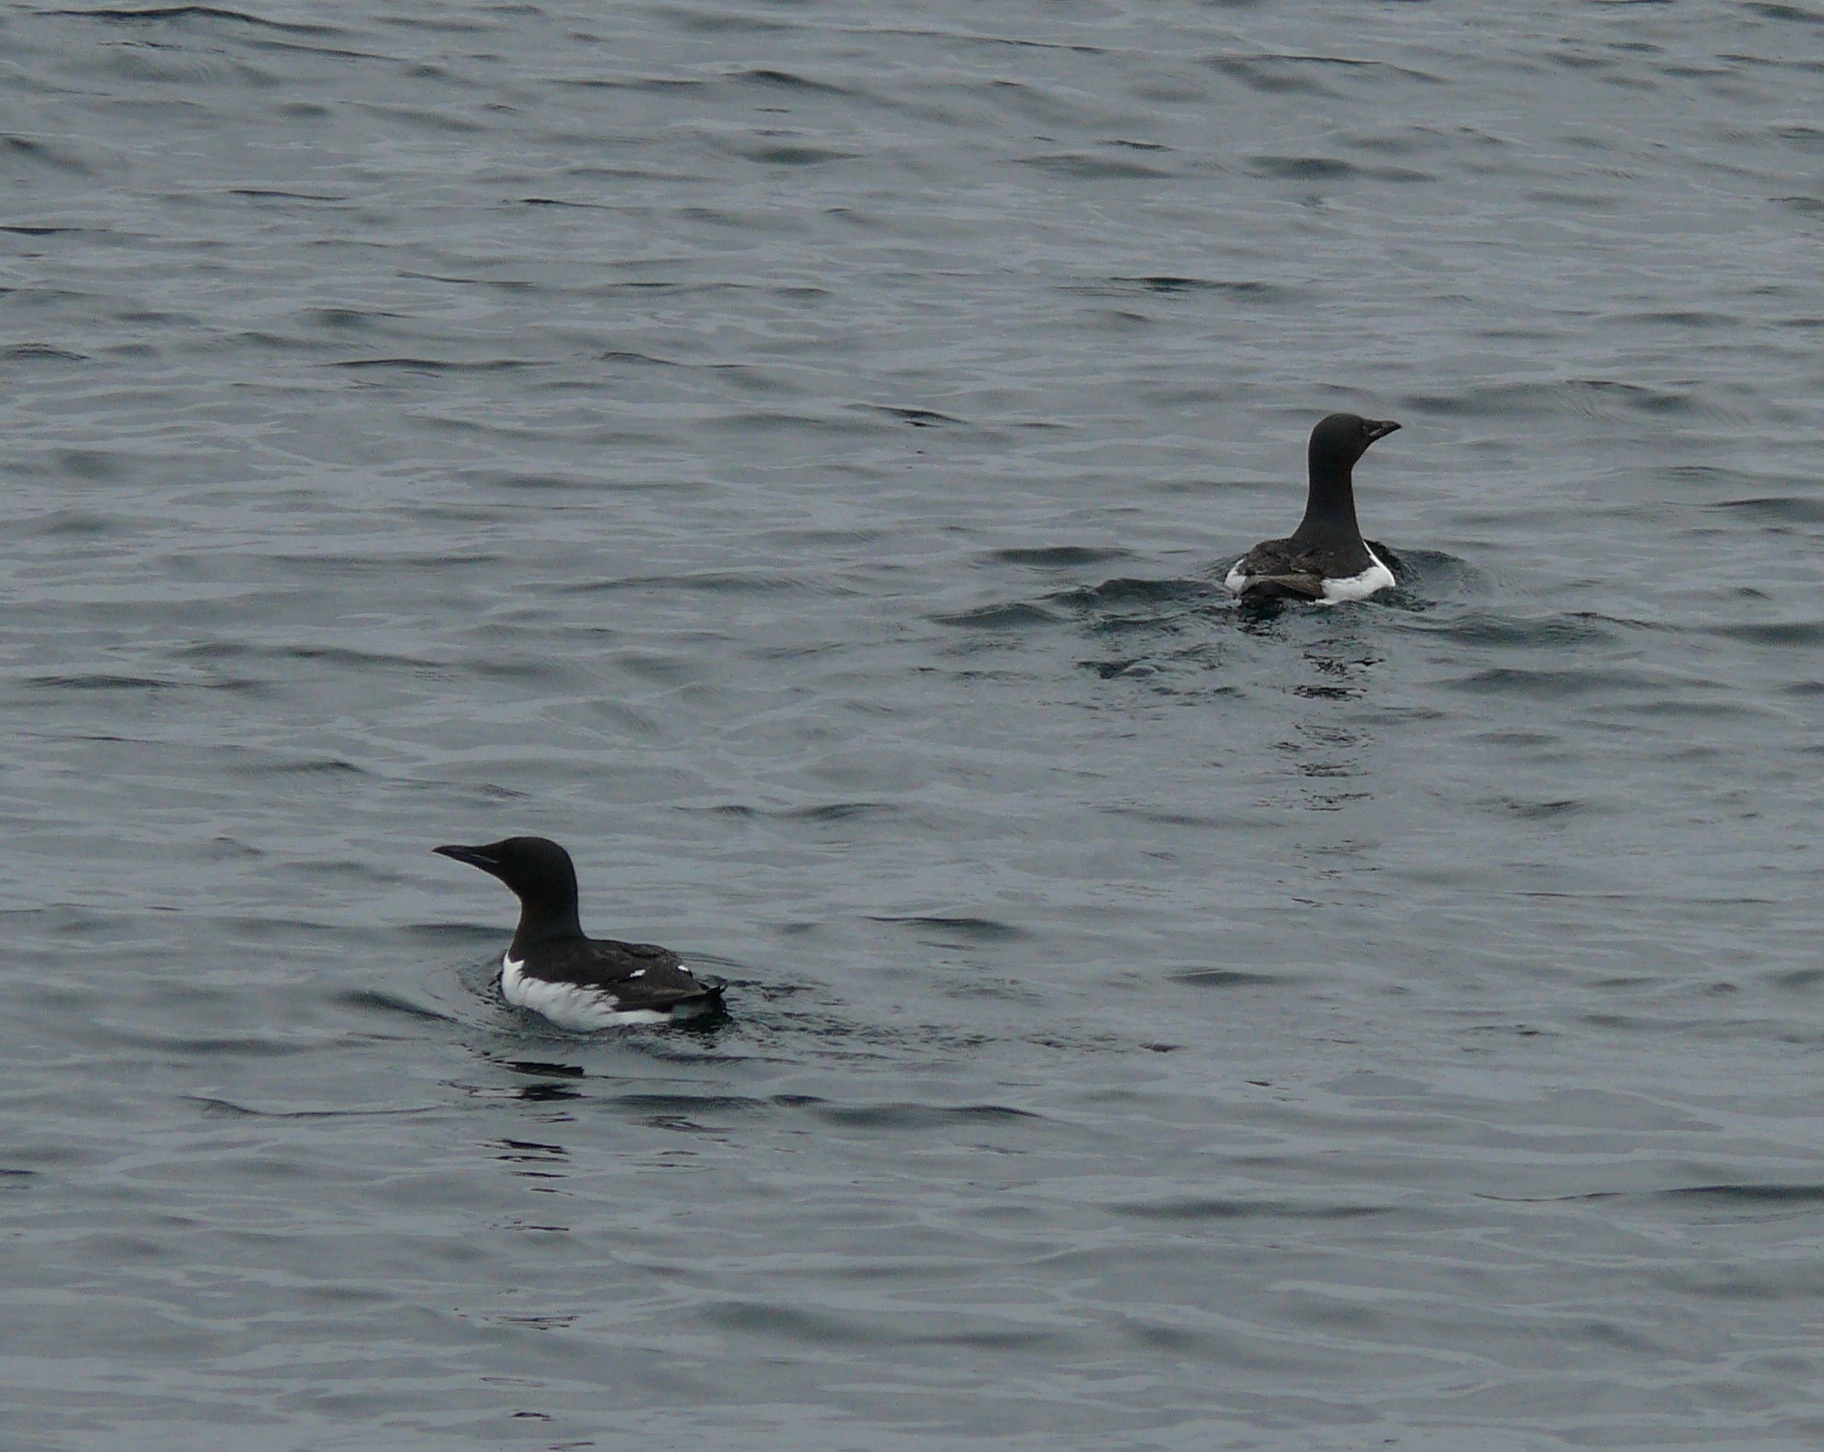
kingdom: Animalia
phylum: Chordata
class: Aves
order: Charadriiformes
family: Alcidae
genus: Uria
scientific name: Uria lomvia
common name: Thick-billed murre
